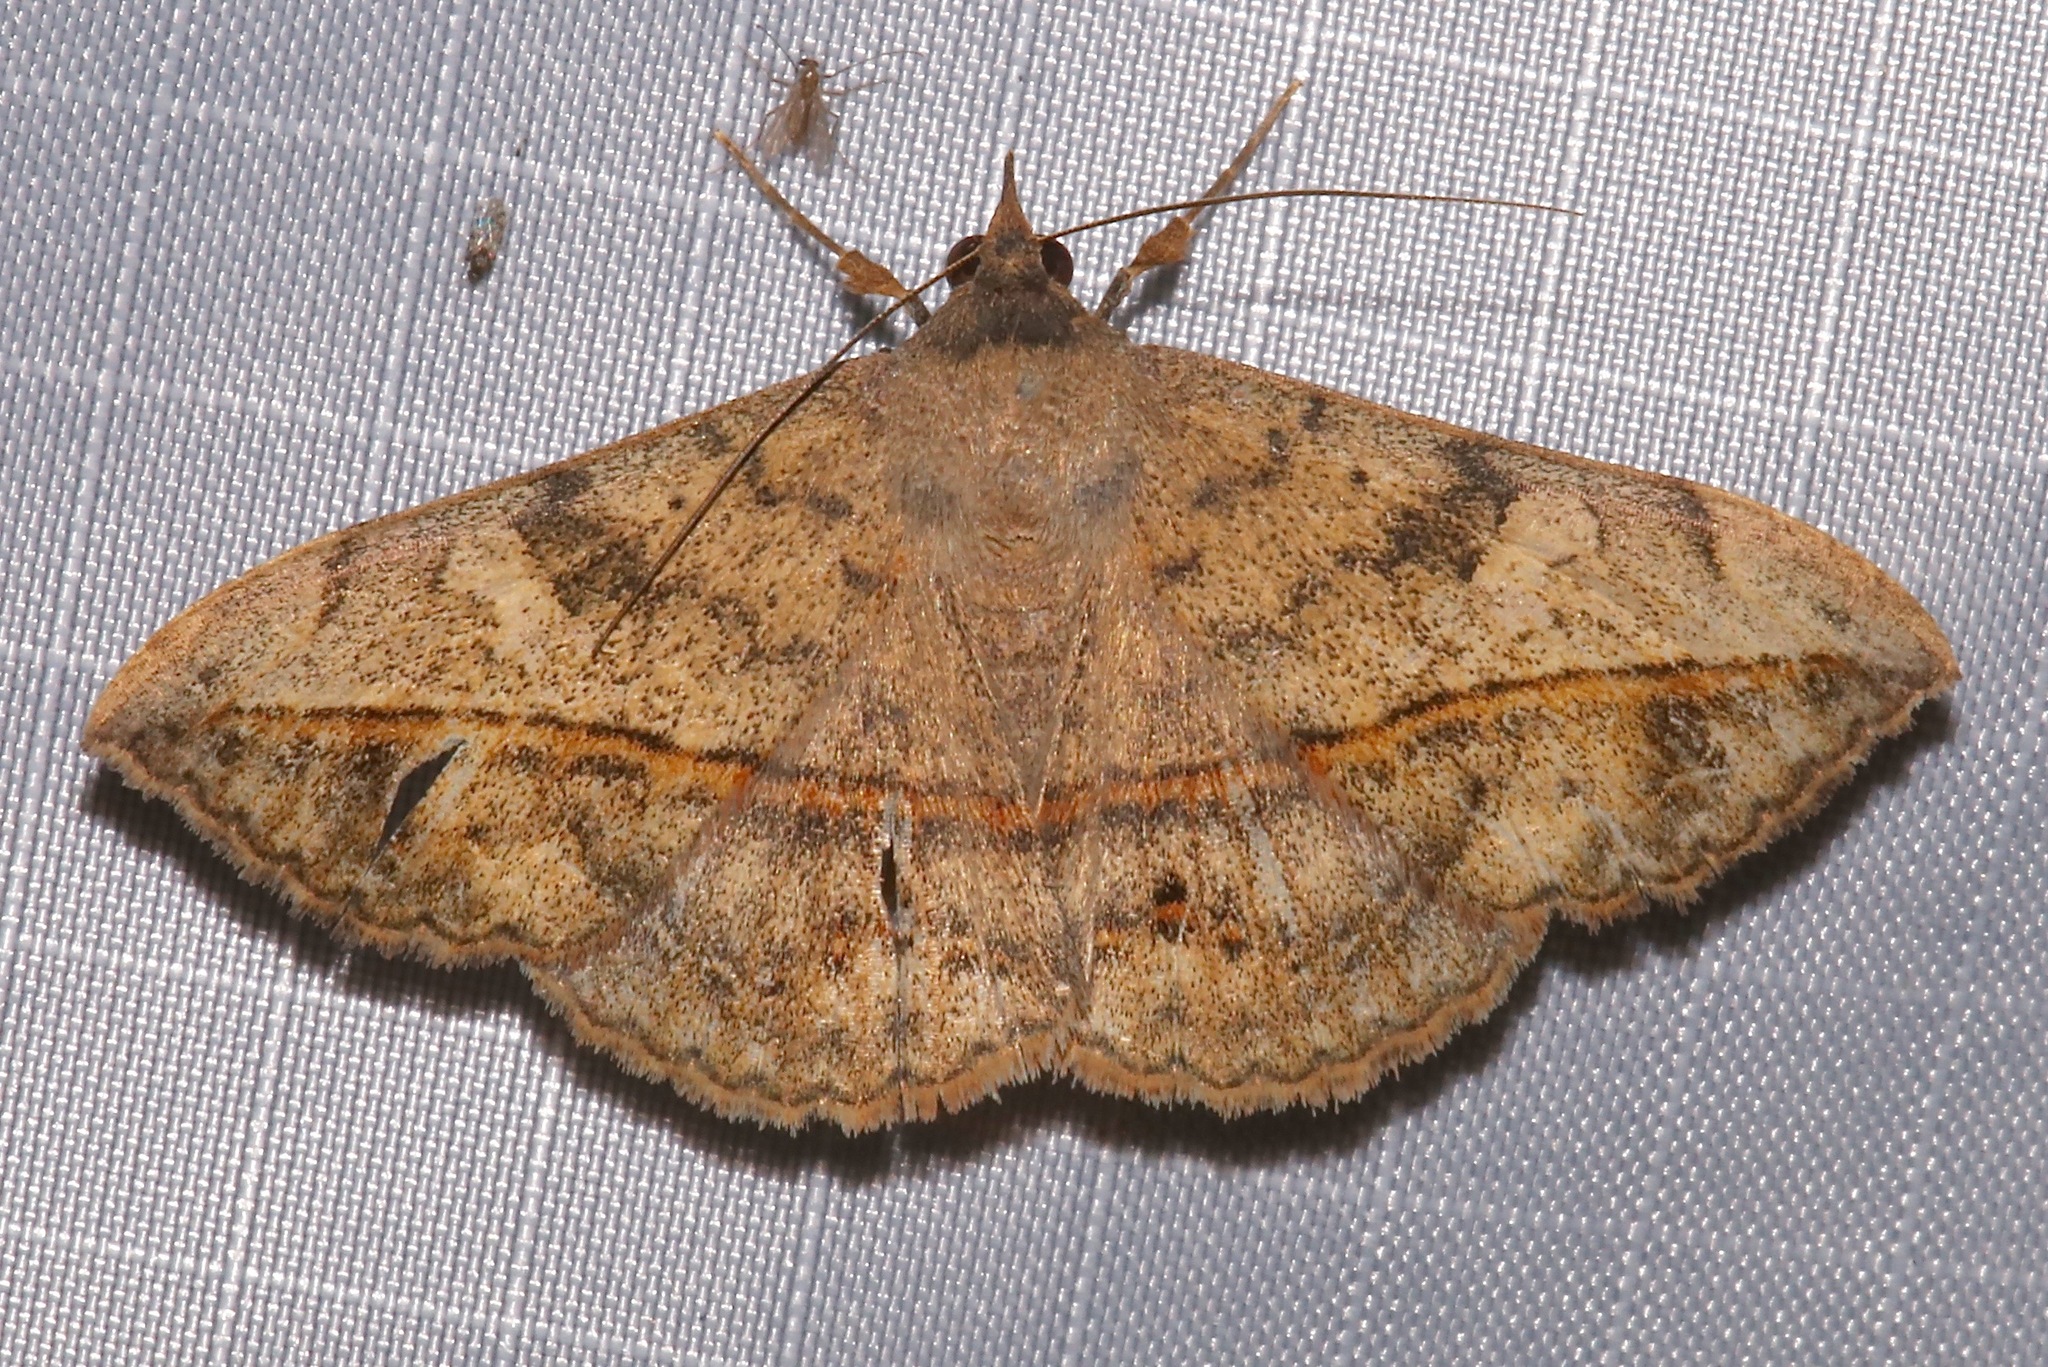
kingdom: Animalia
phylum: Arthropoda
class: Insecta
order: Lepidoptera
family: Erebidae
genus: Anticarsia
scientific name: Anticarsia gemmatalis
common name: Cutworm moth
